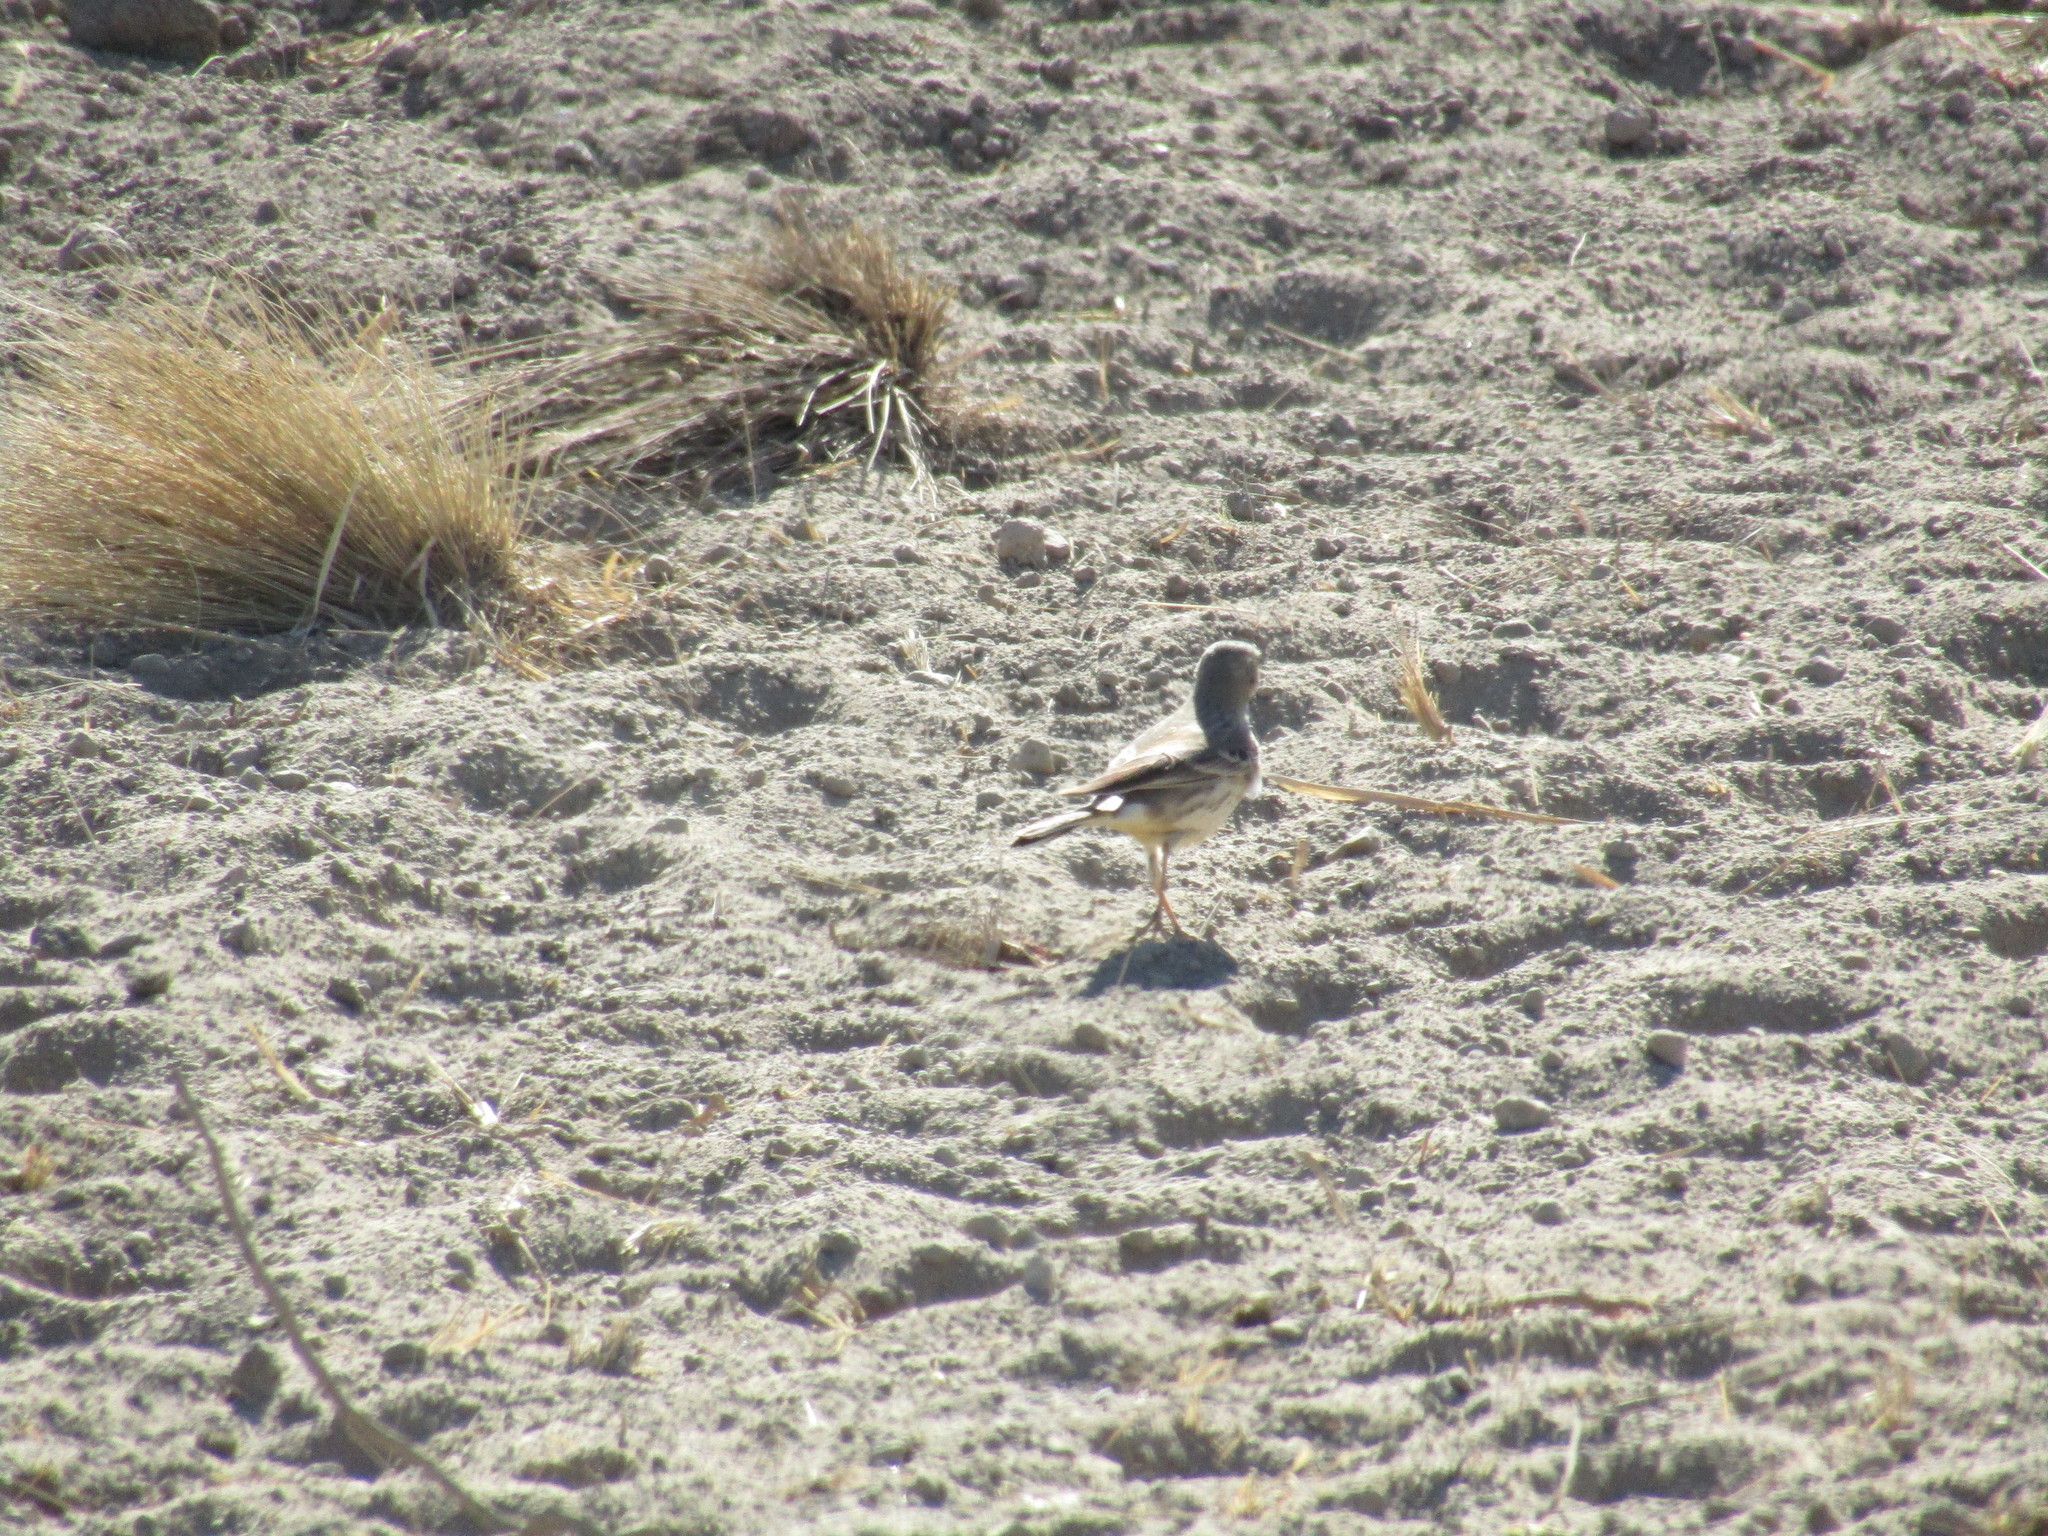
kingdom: Animalia
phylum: Chordata
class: Aves
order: Passeriformes
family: Motacillidae
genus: Anthus
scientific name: Anthus rubescens
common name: Buff-bellied pipit
